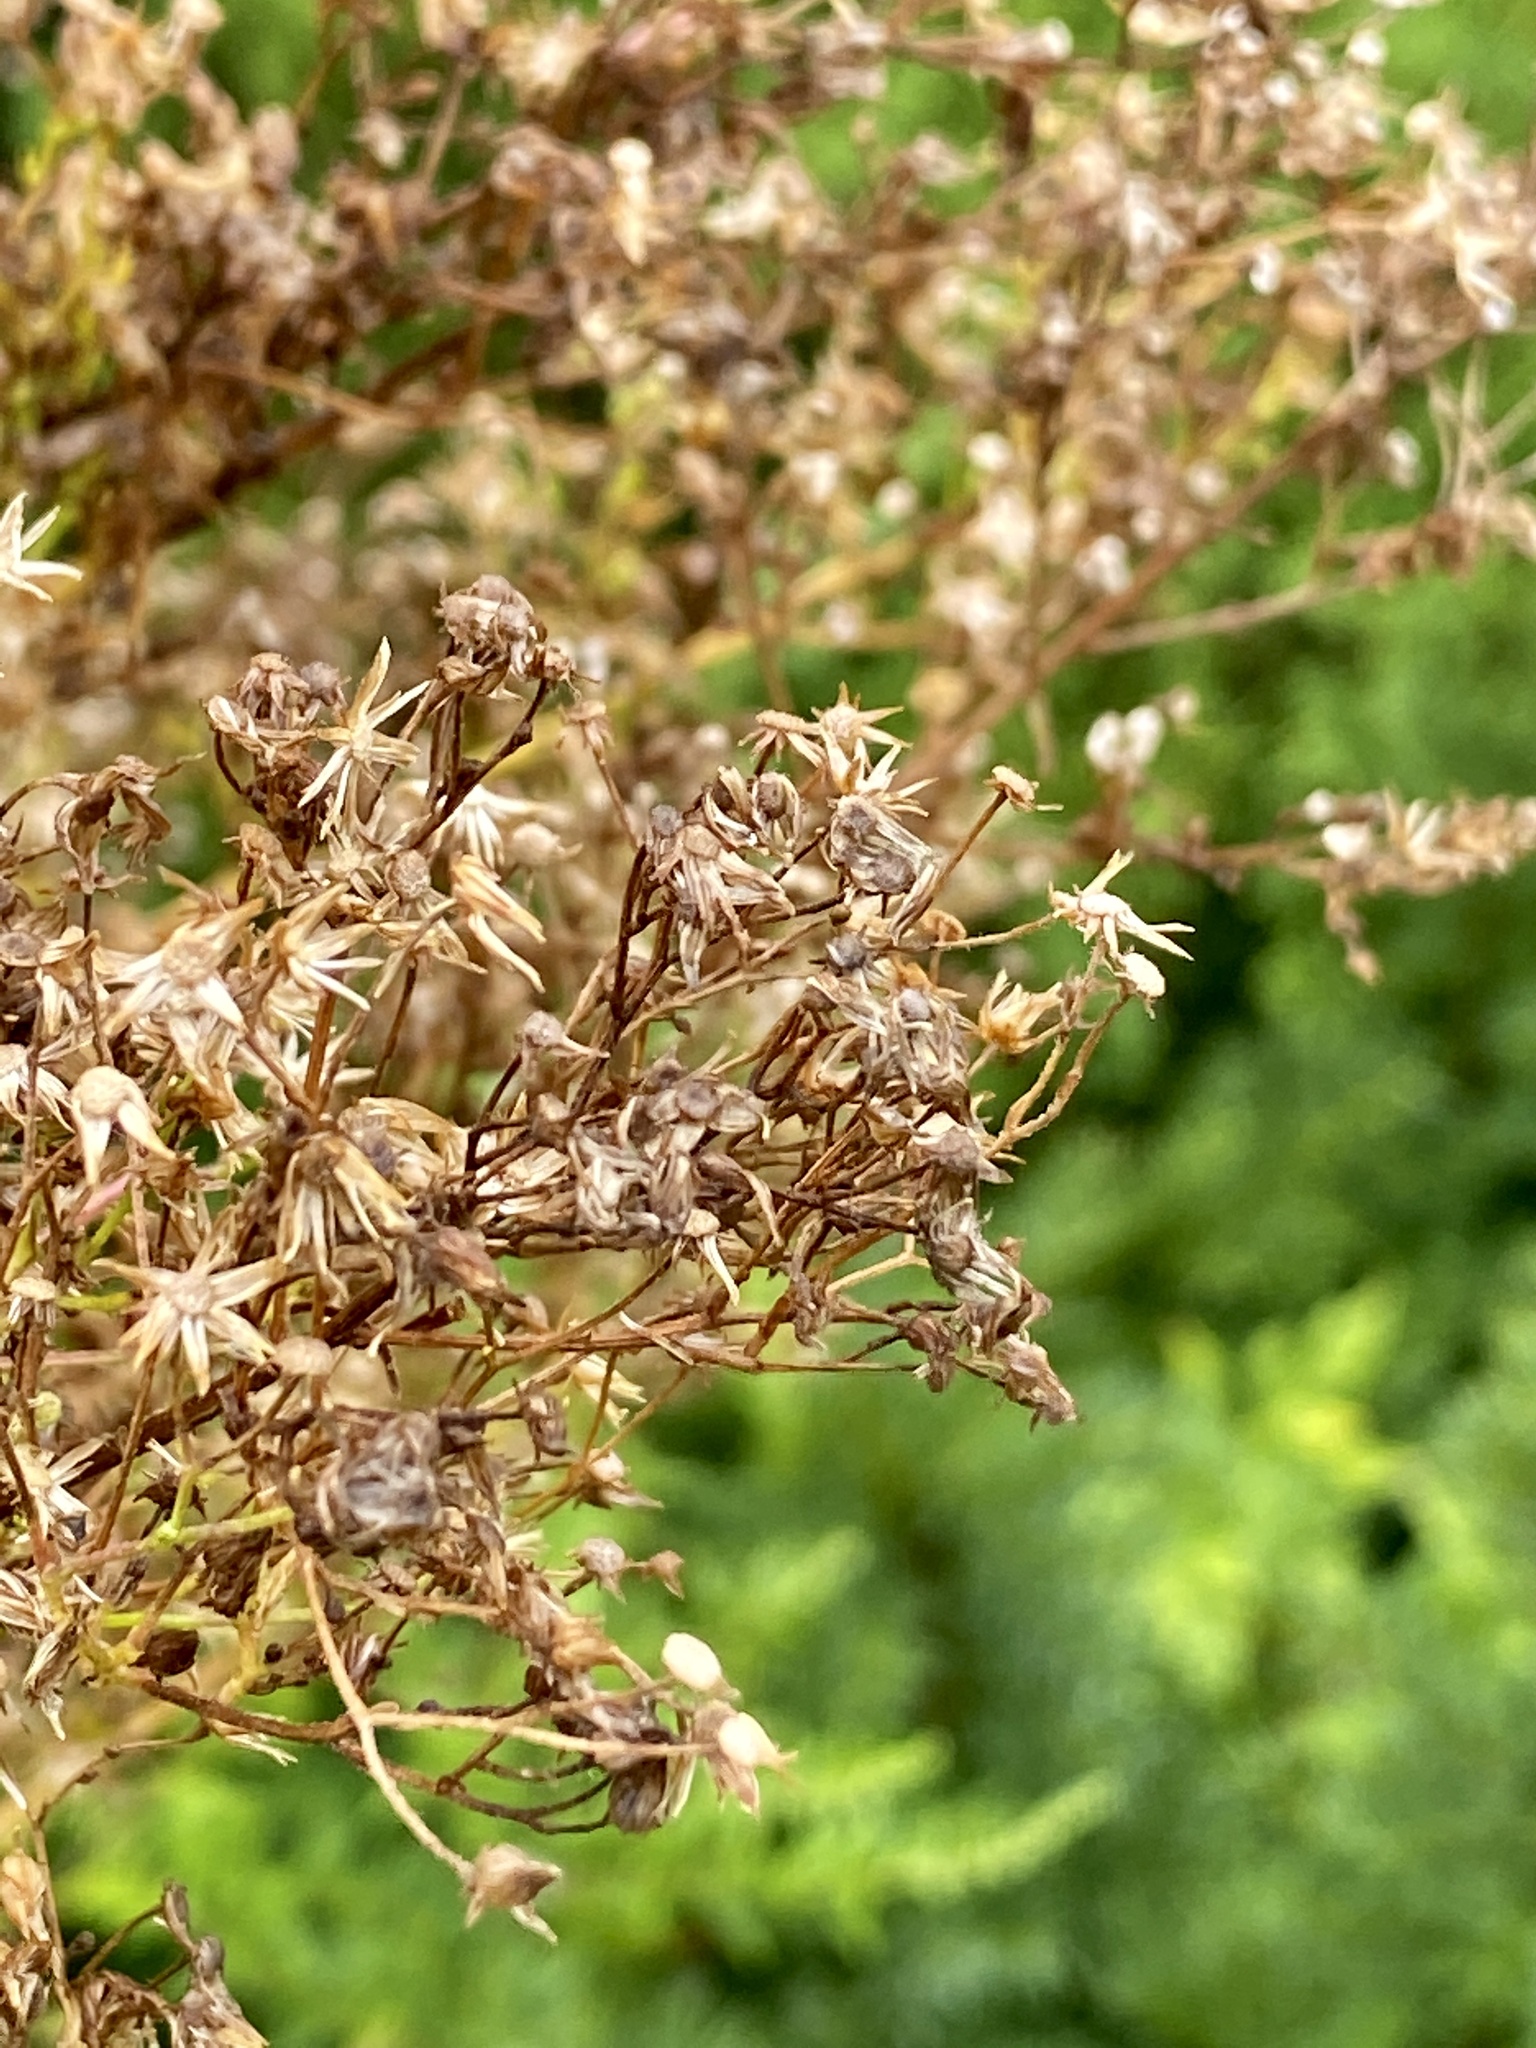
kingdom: Plantae
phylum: Tracheophyta
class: Magnoliopsida
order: Asterales
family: Asteraceae
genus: Erigeron
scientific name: Erigeron canadensis
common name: Canadian fleabane
